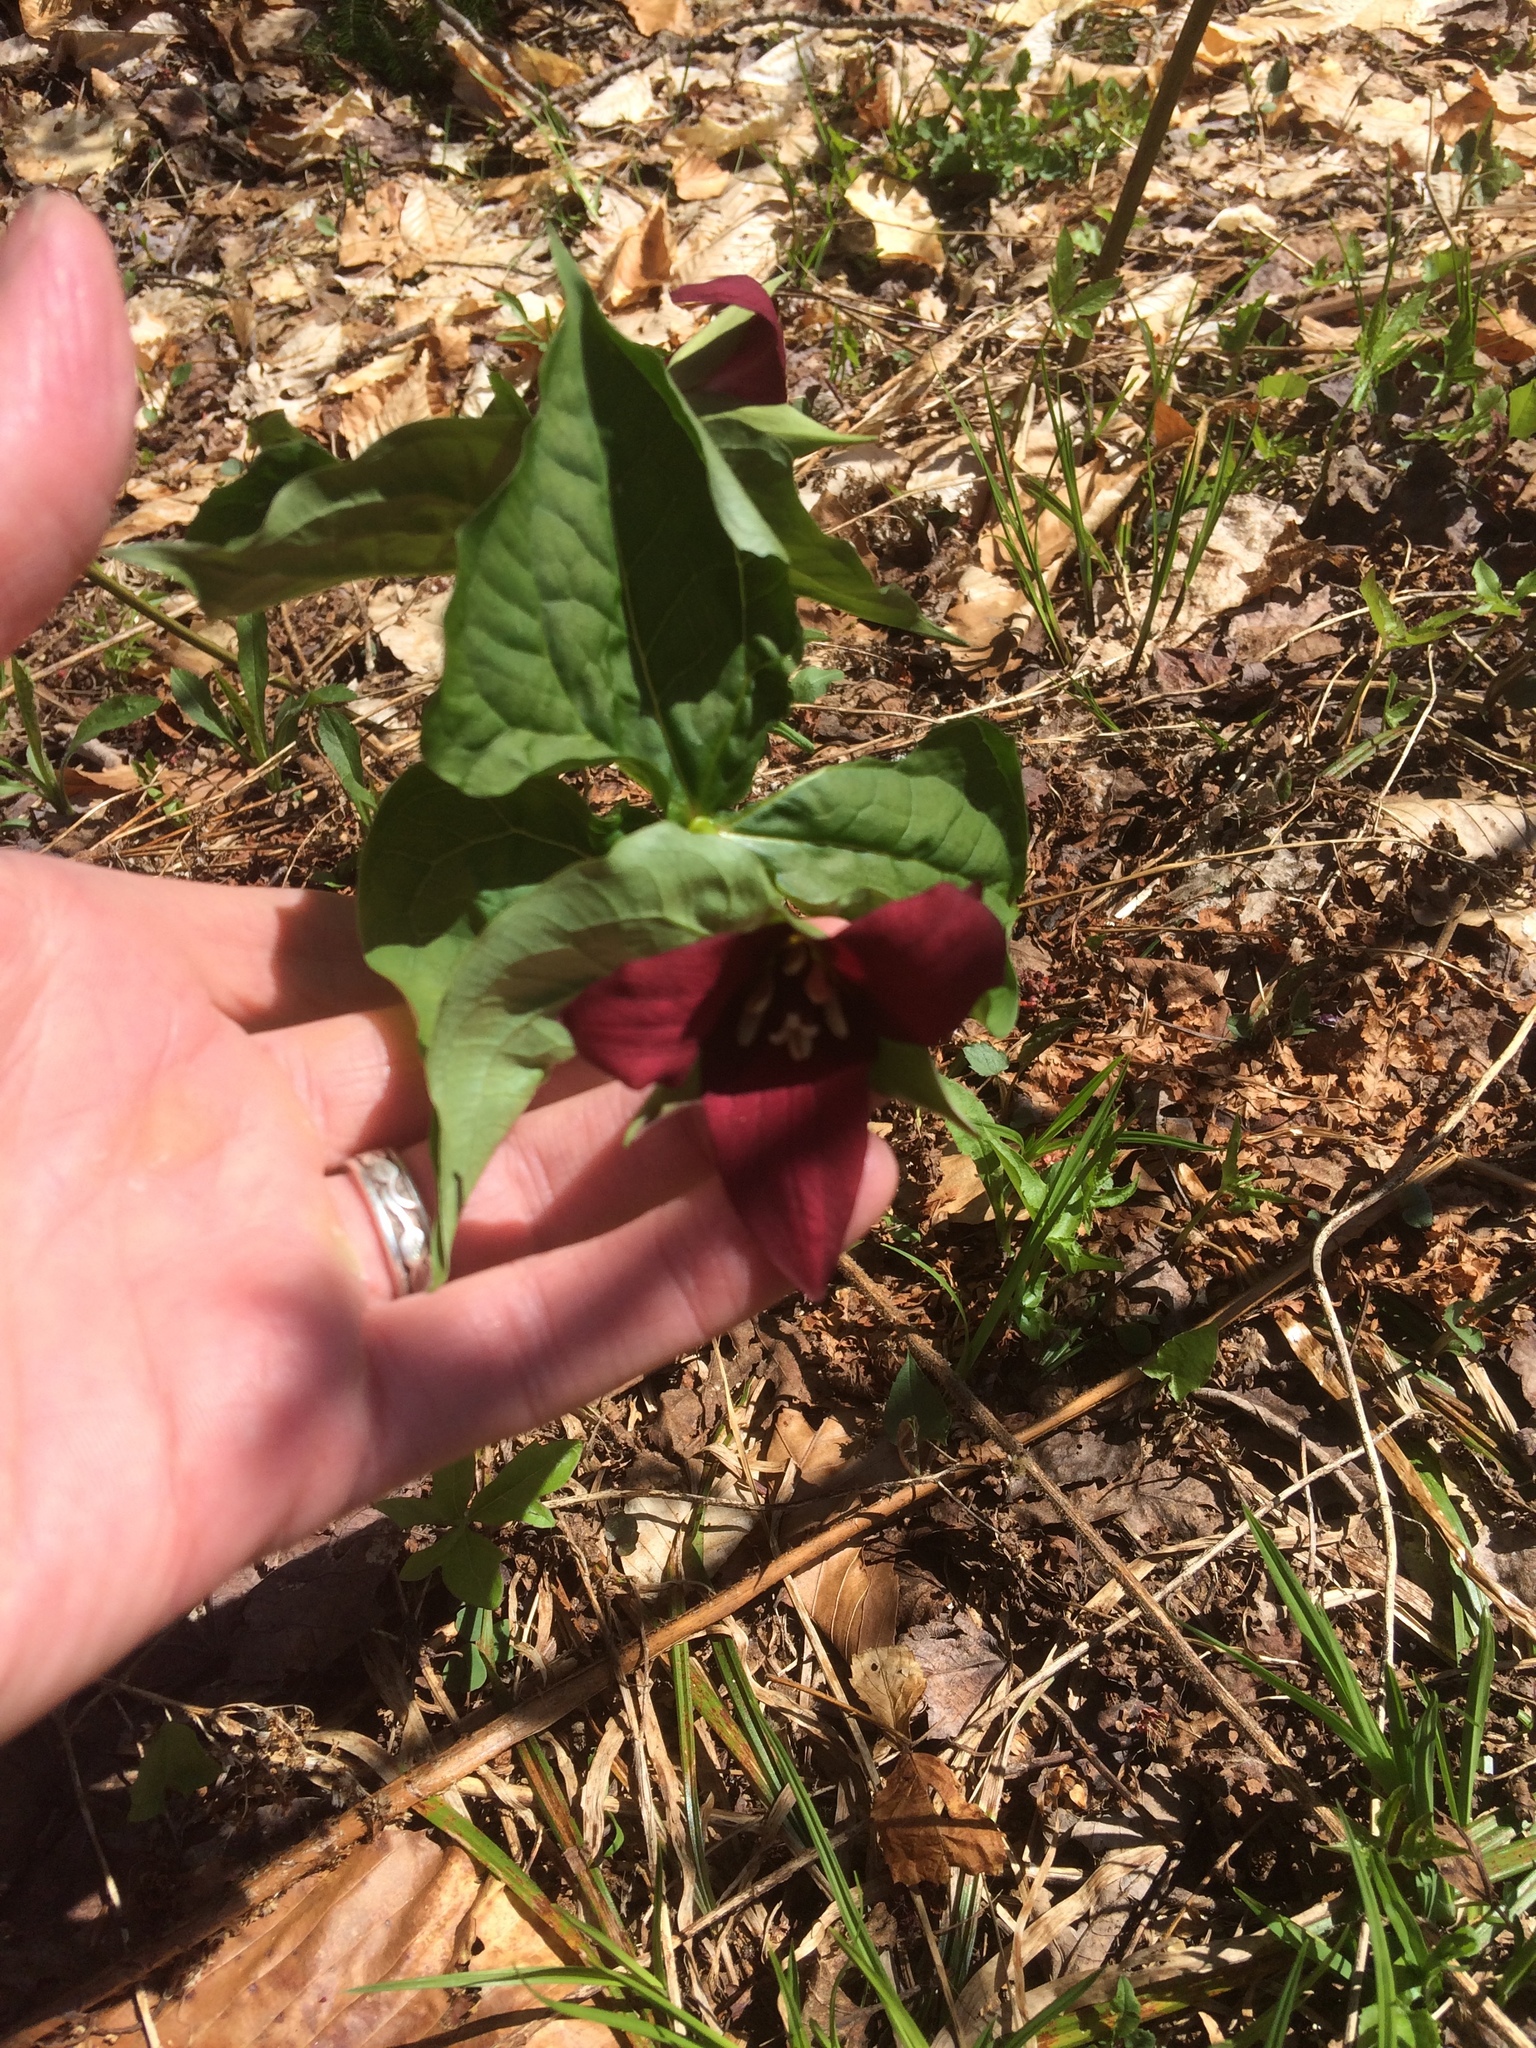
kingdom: Plantae
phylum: Tracheophyta
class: Liliopsida
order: Liliales
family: Melanthiaceae
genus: Trillium
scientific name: Trillium erectum
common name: Purple trillium
